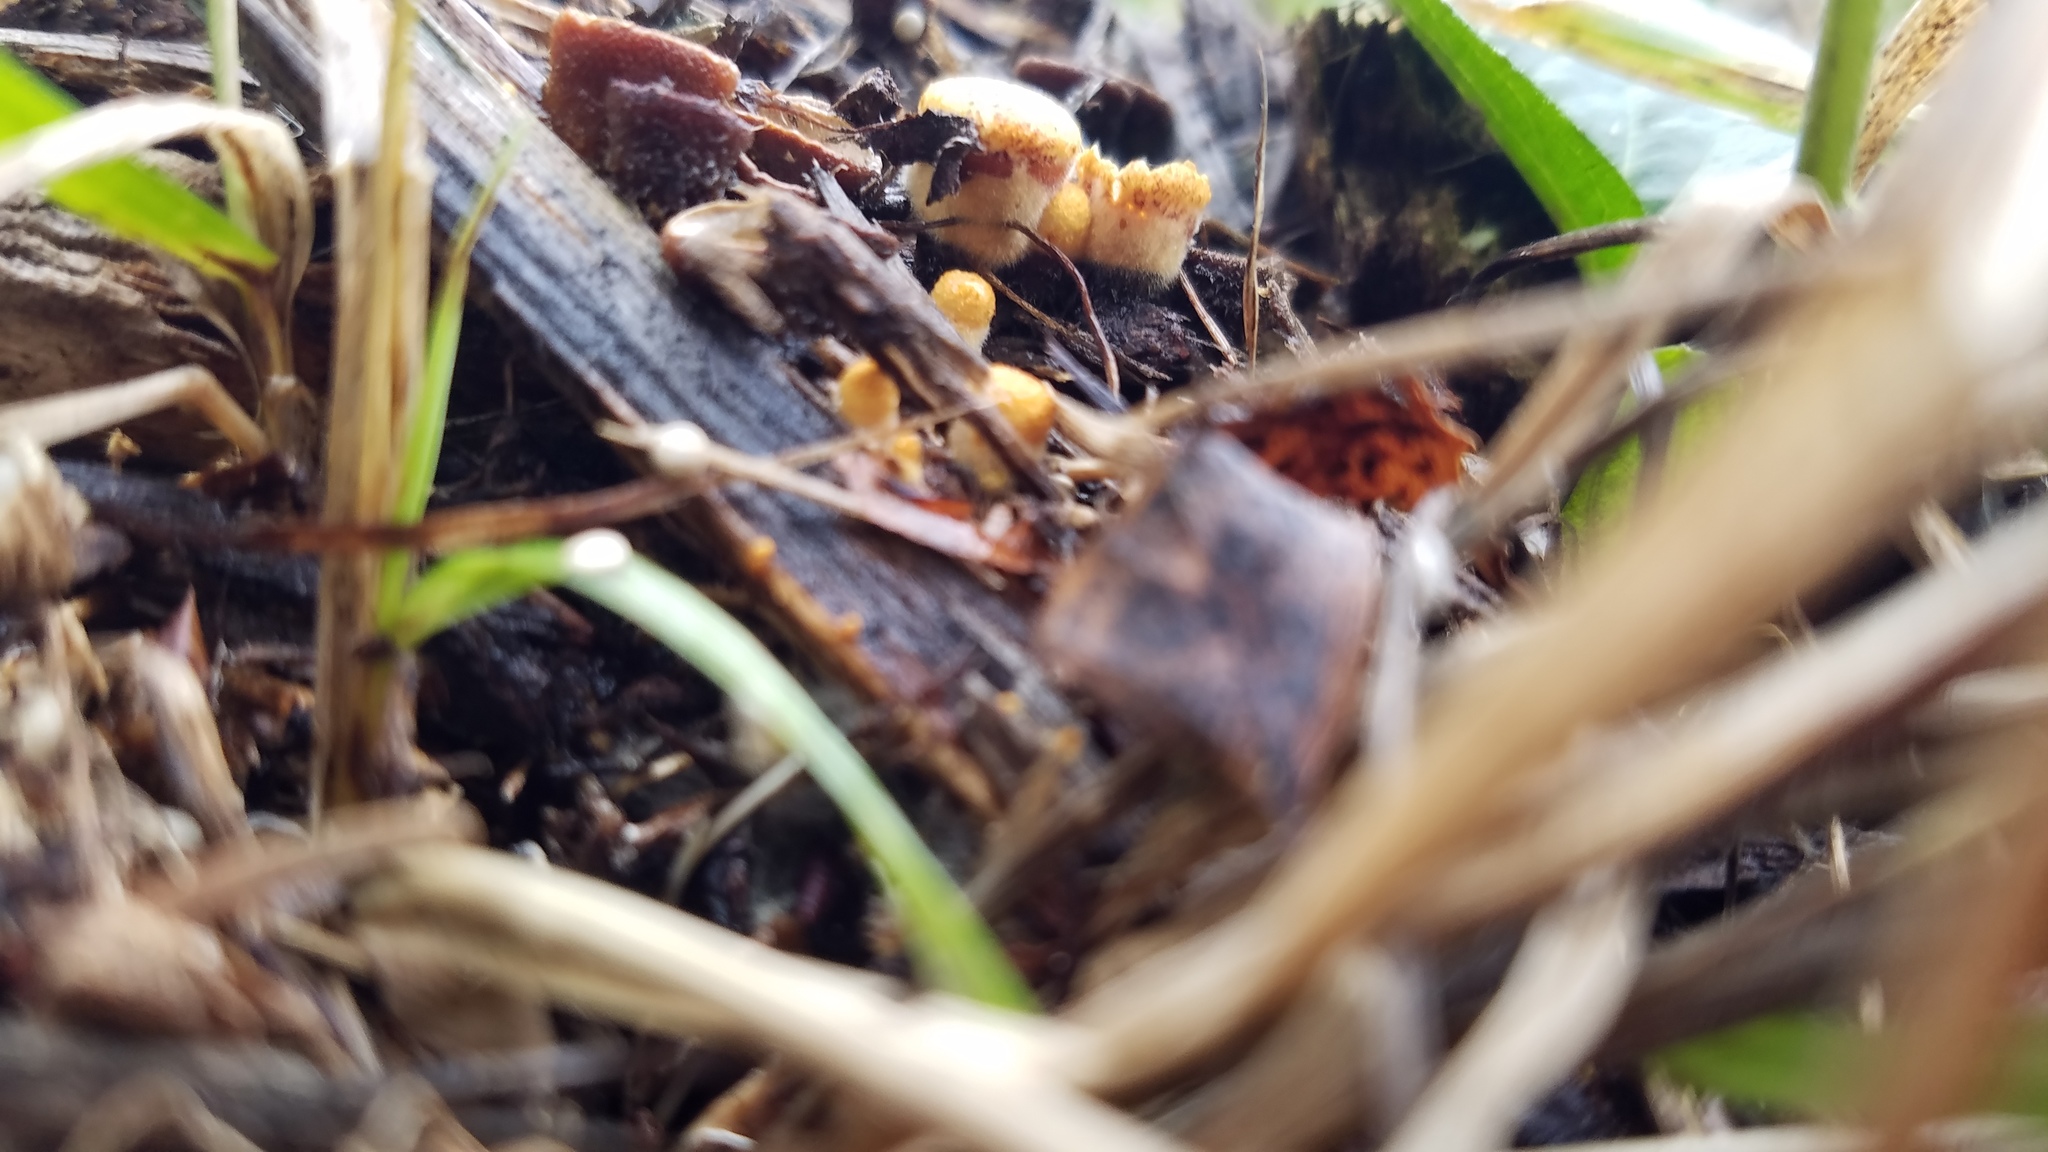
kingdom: Fungi
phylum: Basidiomycota
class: Agaricomycetes
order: Agaricales
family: Nidulariaceae
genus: Crucibulum
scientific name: Crucibulum laeve
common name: Common bird's nest
